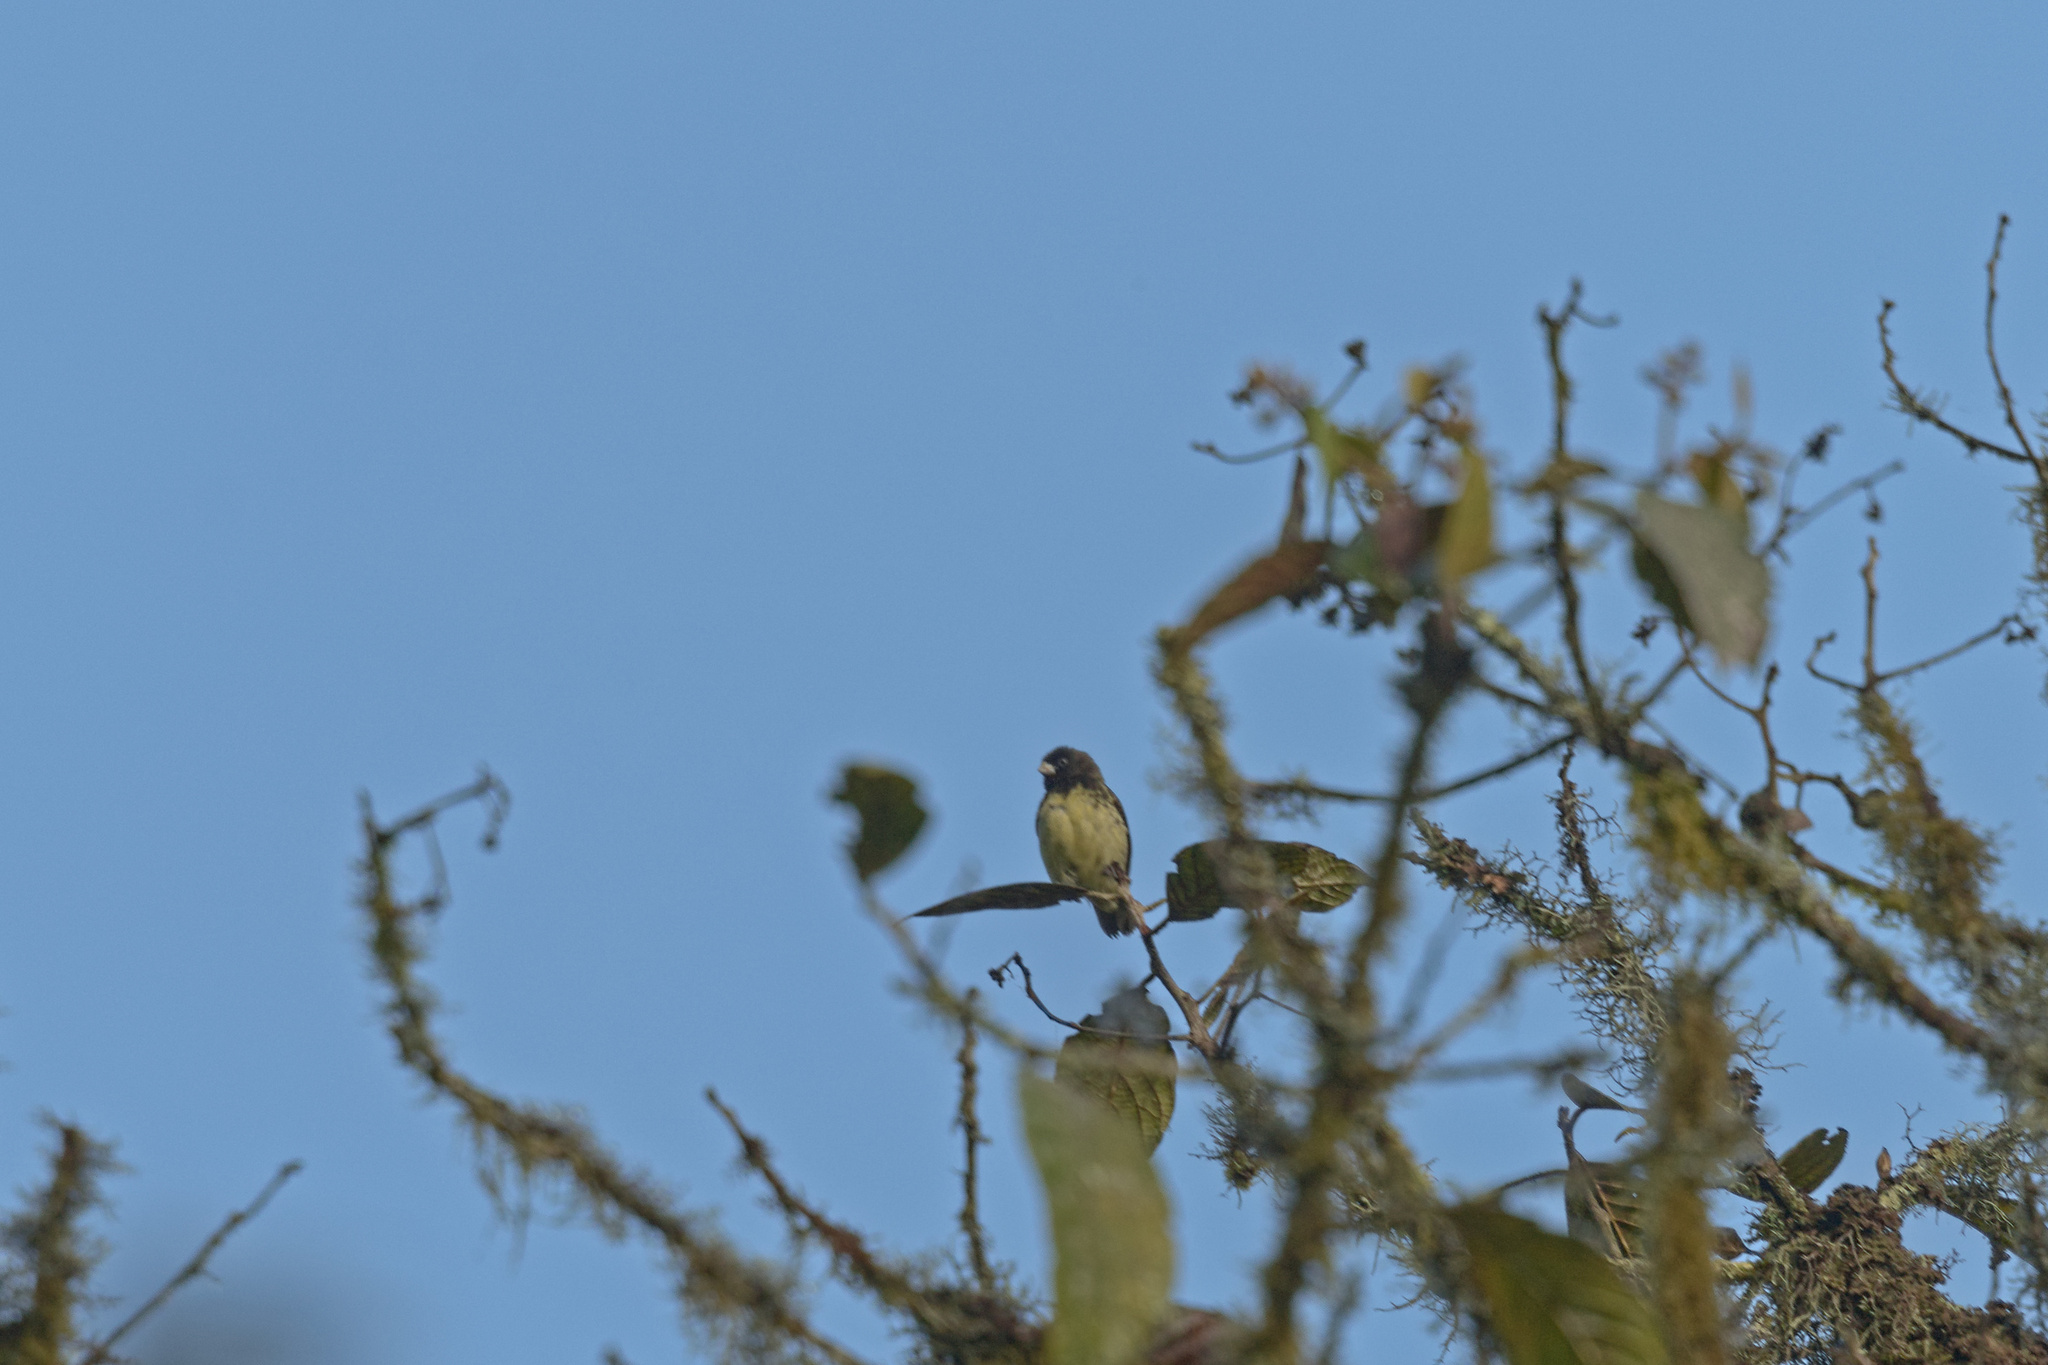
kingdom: Animalia
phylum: Chordata
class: Aves
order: Passeriformes
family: Thraupidae
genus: Sporophila
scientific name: Sporophila nigricollis
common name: Yellow-bellied seedeater
